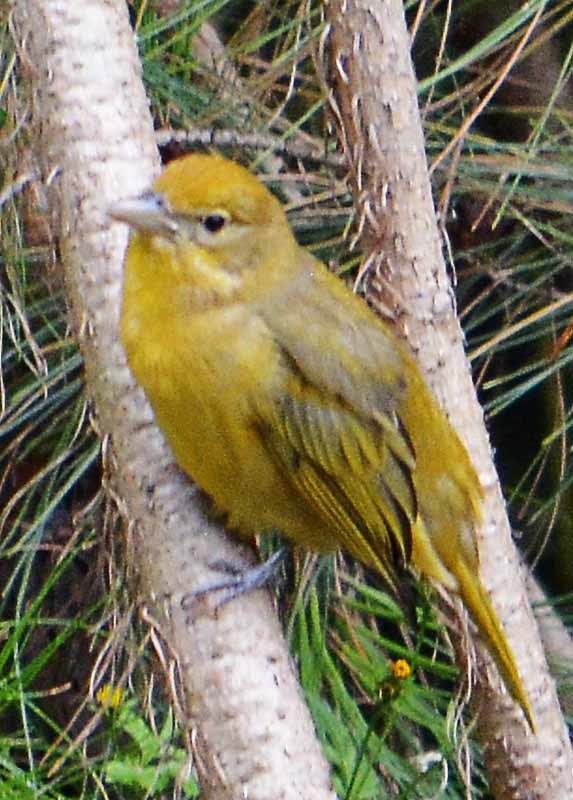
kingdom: Animalia
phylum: Chordata
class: Aves
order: Passeriformes
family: Cardinalidae
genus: Piranga
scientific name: Piranga rubra
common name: Summer tanager
